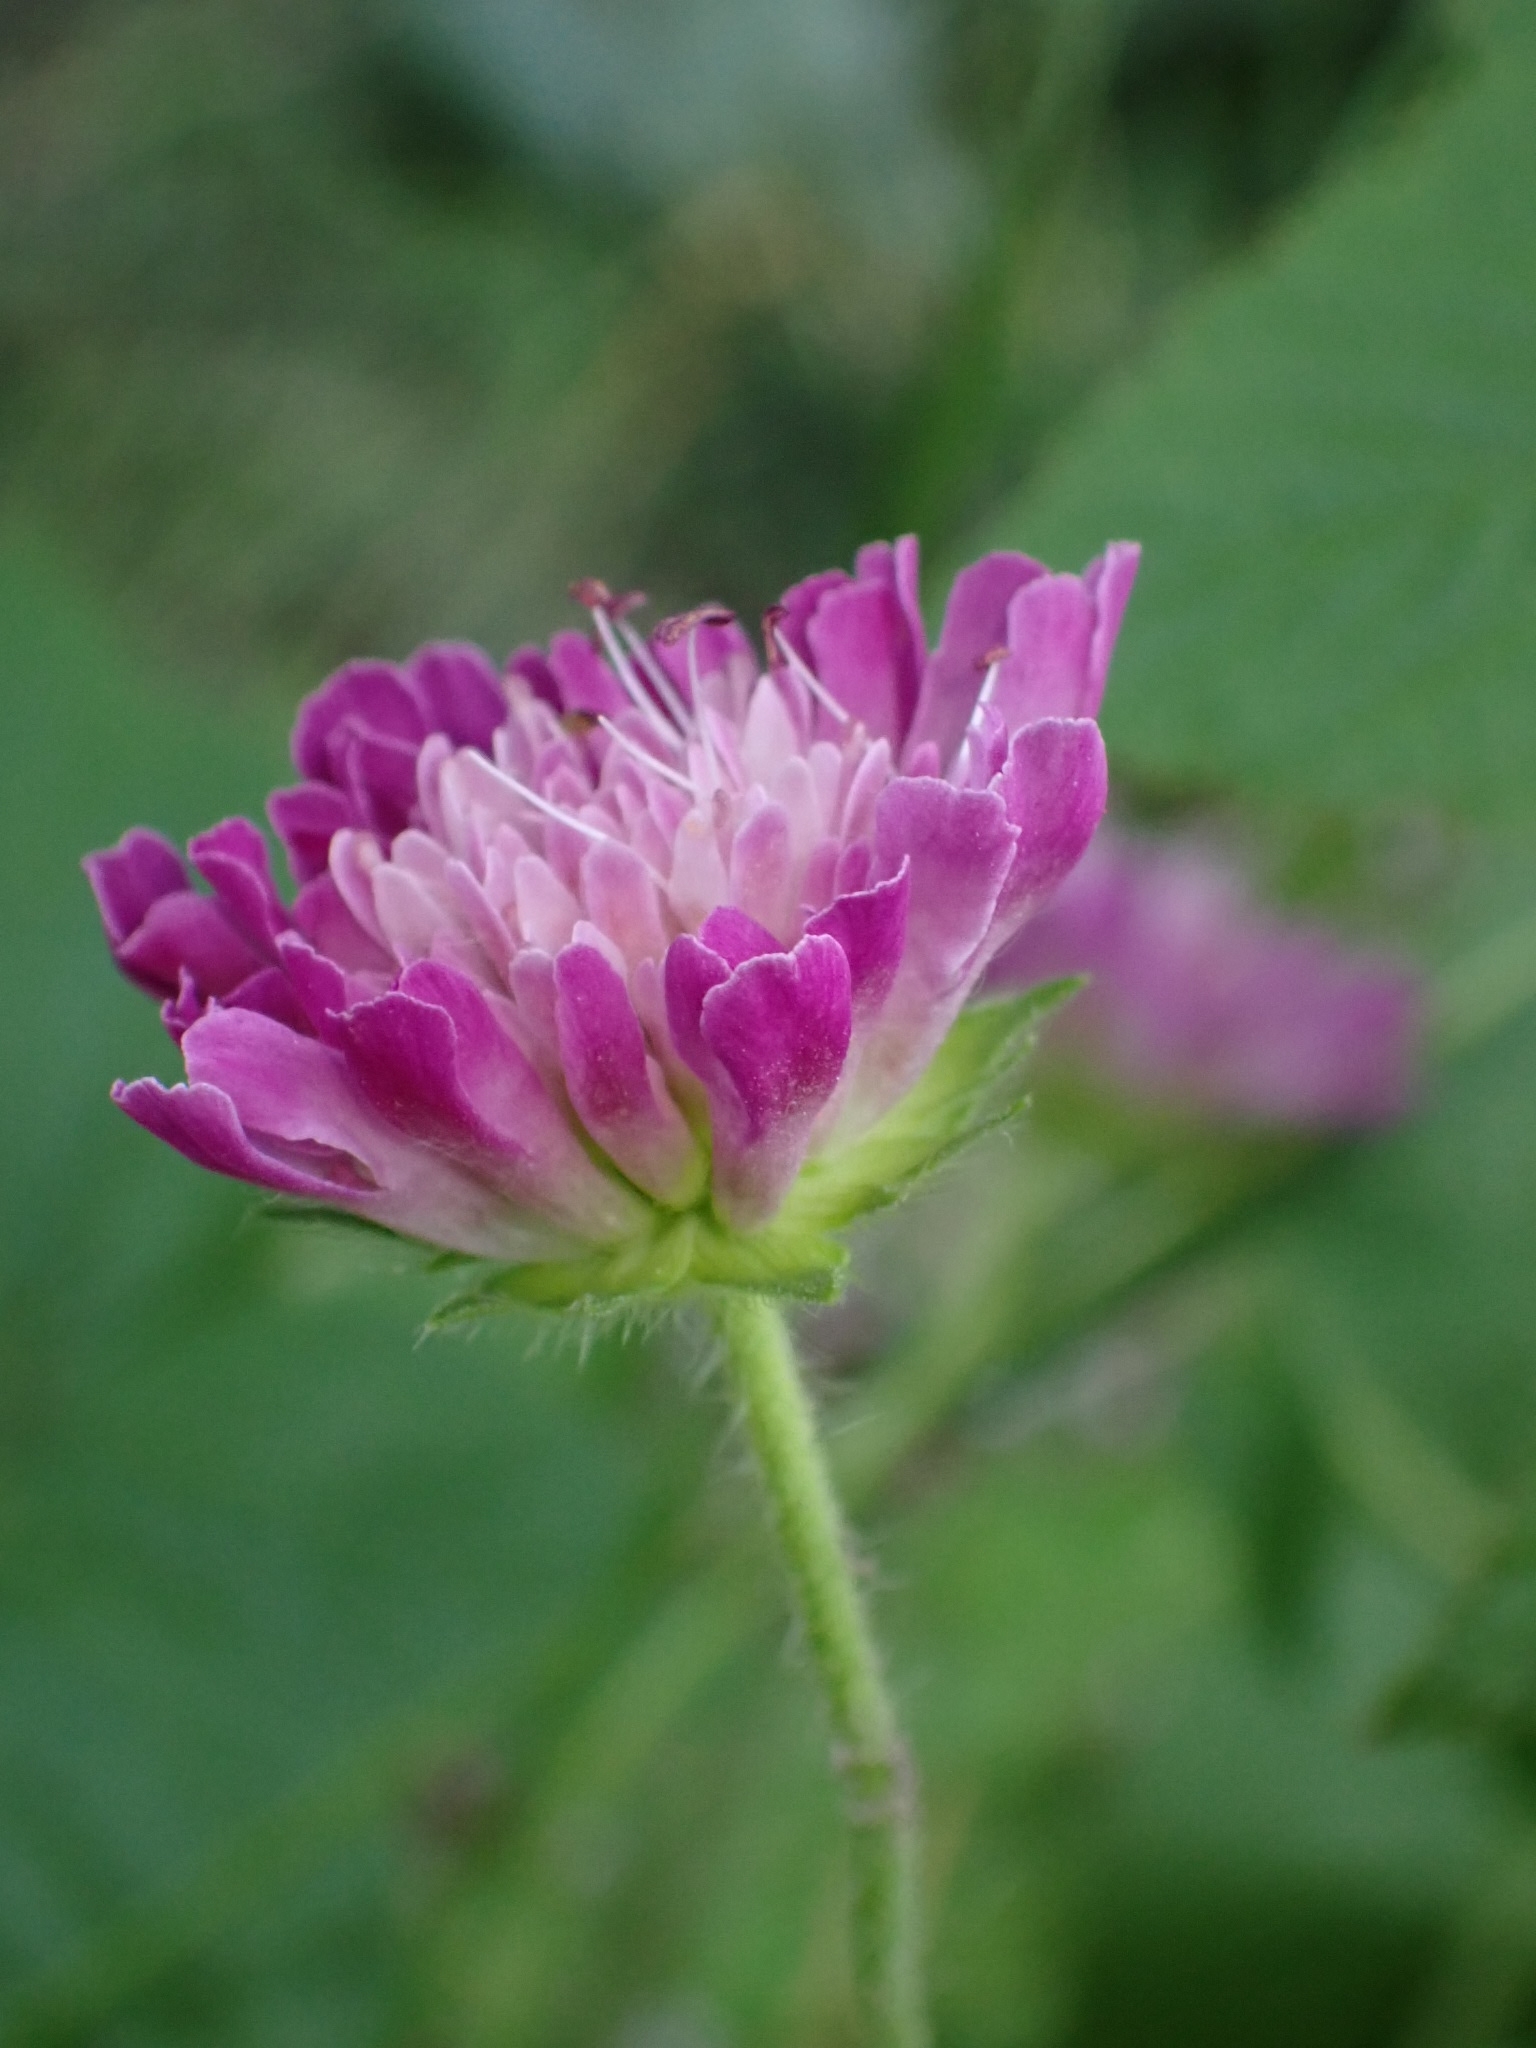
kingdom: Plantae
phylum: Tracheophyta
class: Magnoliopsida
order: Dipsacales
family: Caprifoliaceae
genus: Knautia
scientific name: Knautia arvensis
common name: Field scabiosa
